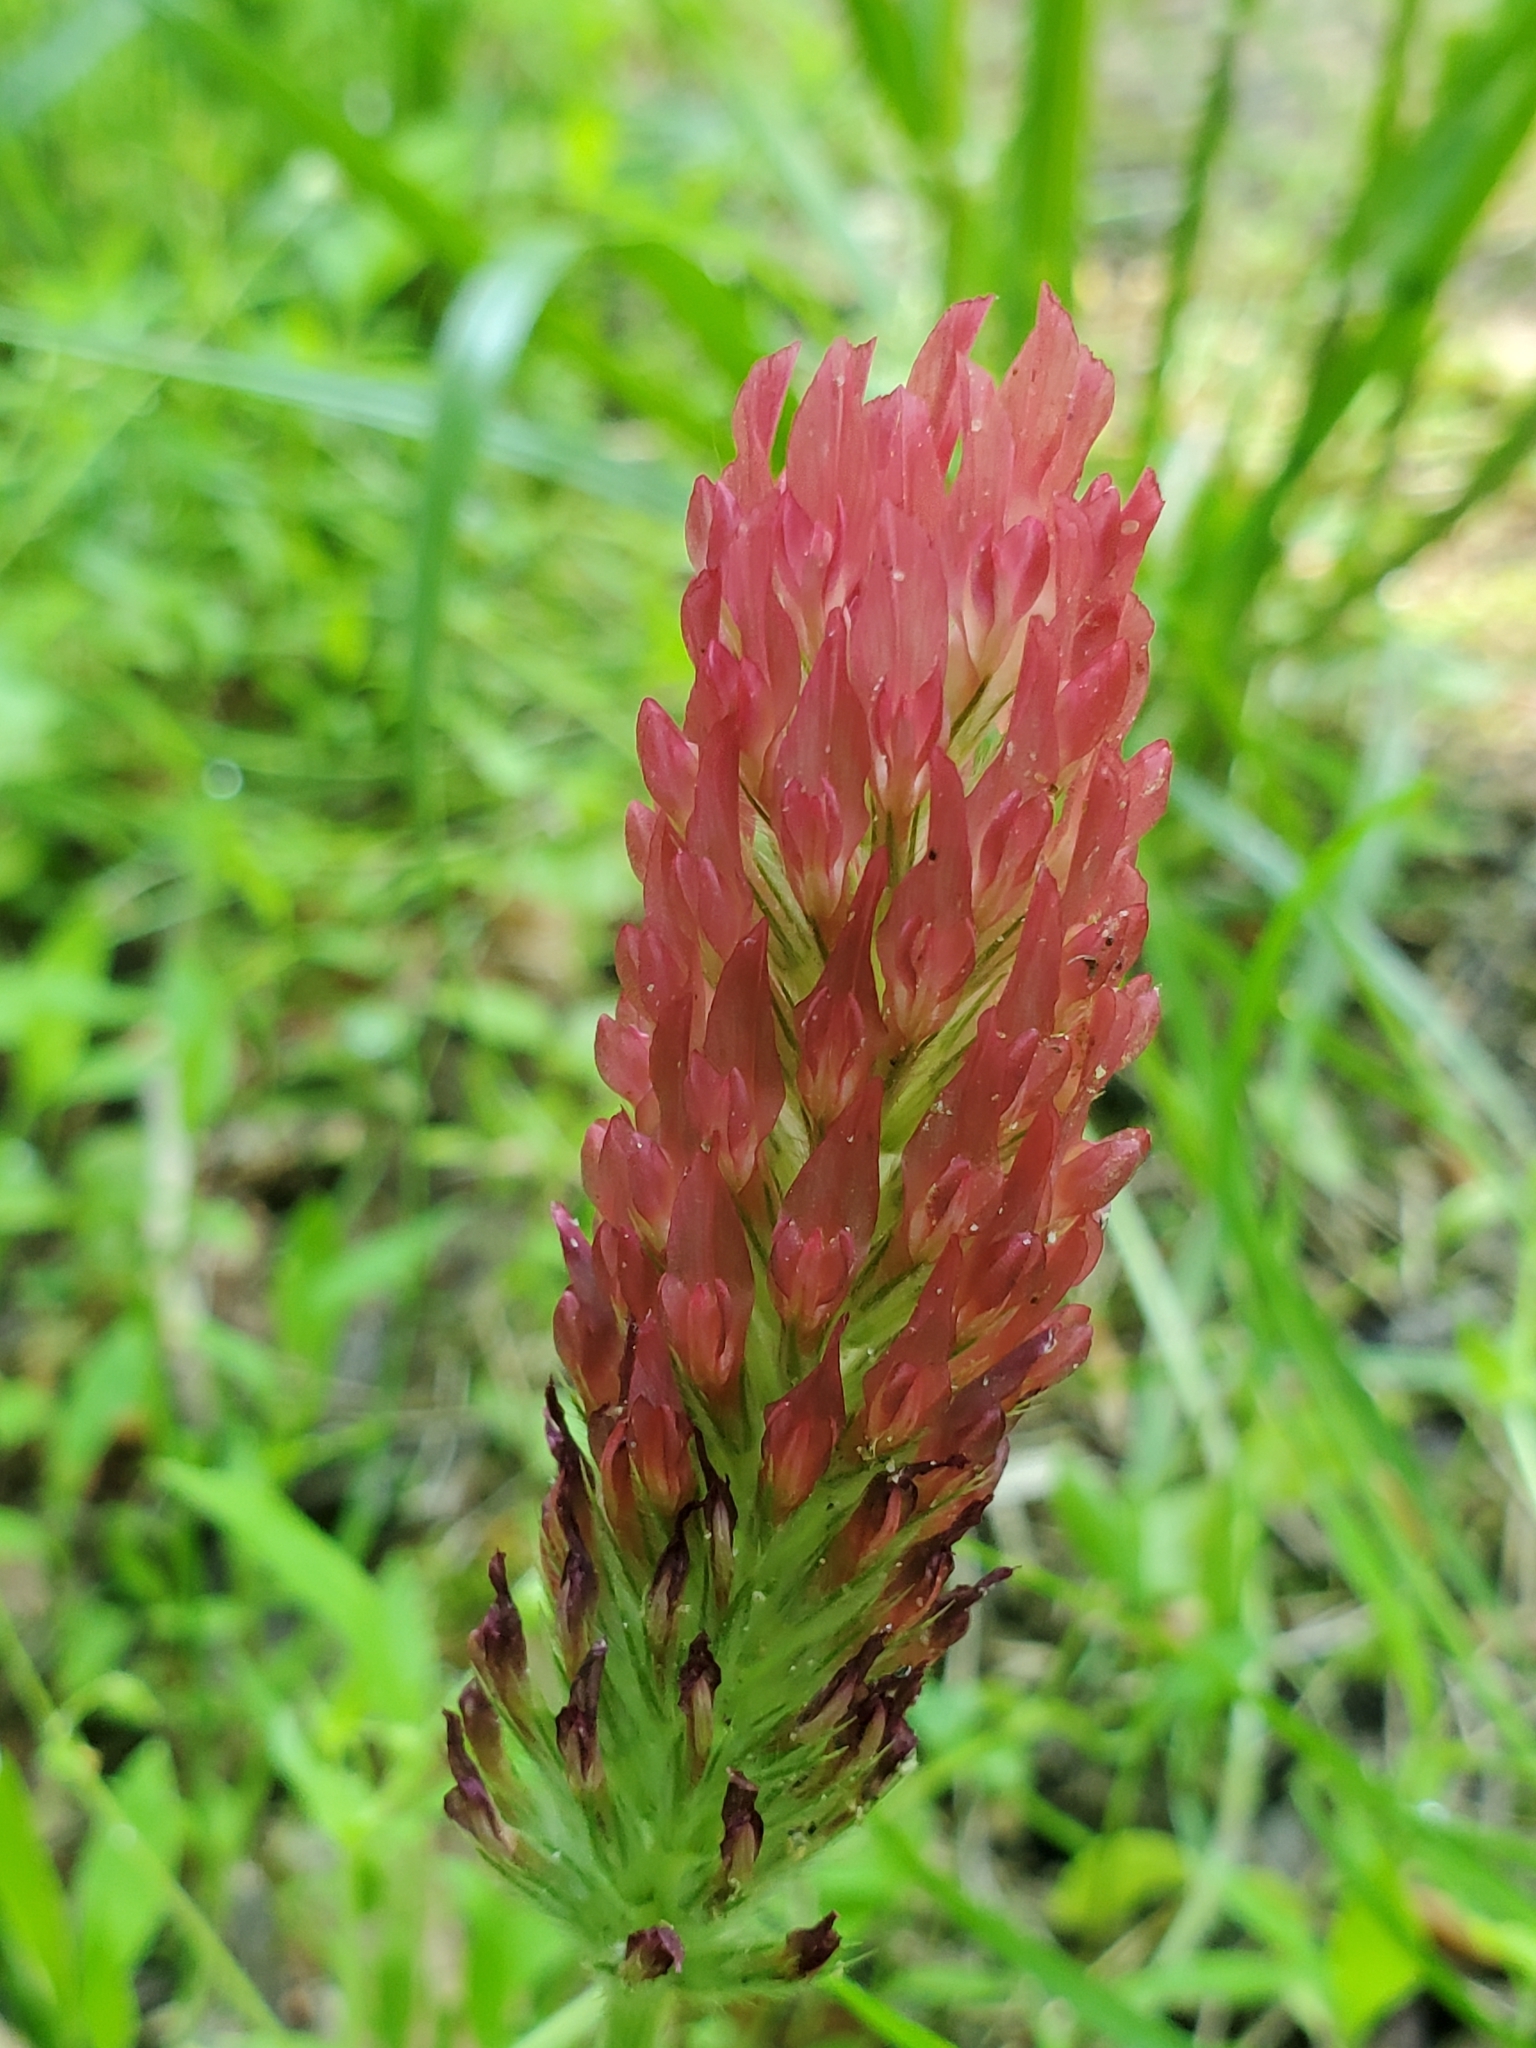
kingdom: Plantae
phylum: Tracheophyta
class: Magnoliopsida
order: Fabales
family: Fabaceae
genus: Trifolium
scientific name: Trifolium incarnatum
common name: Crimson clover
